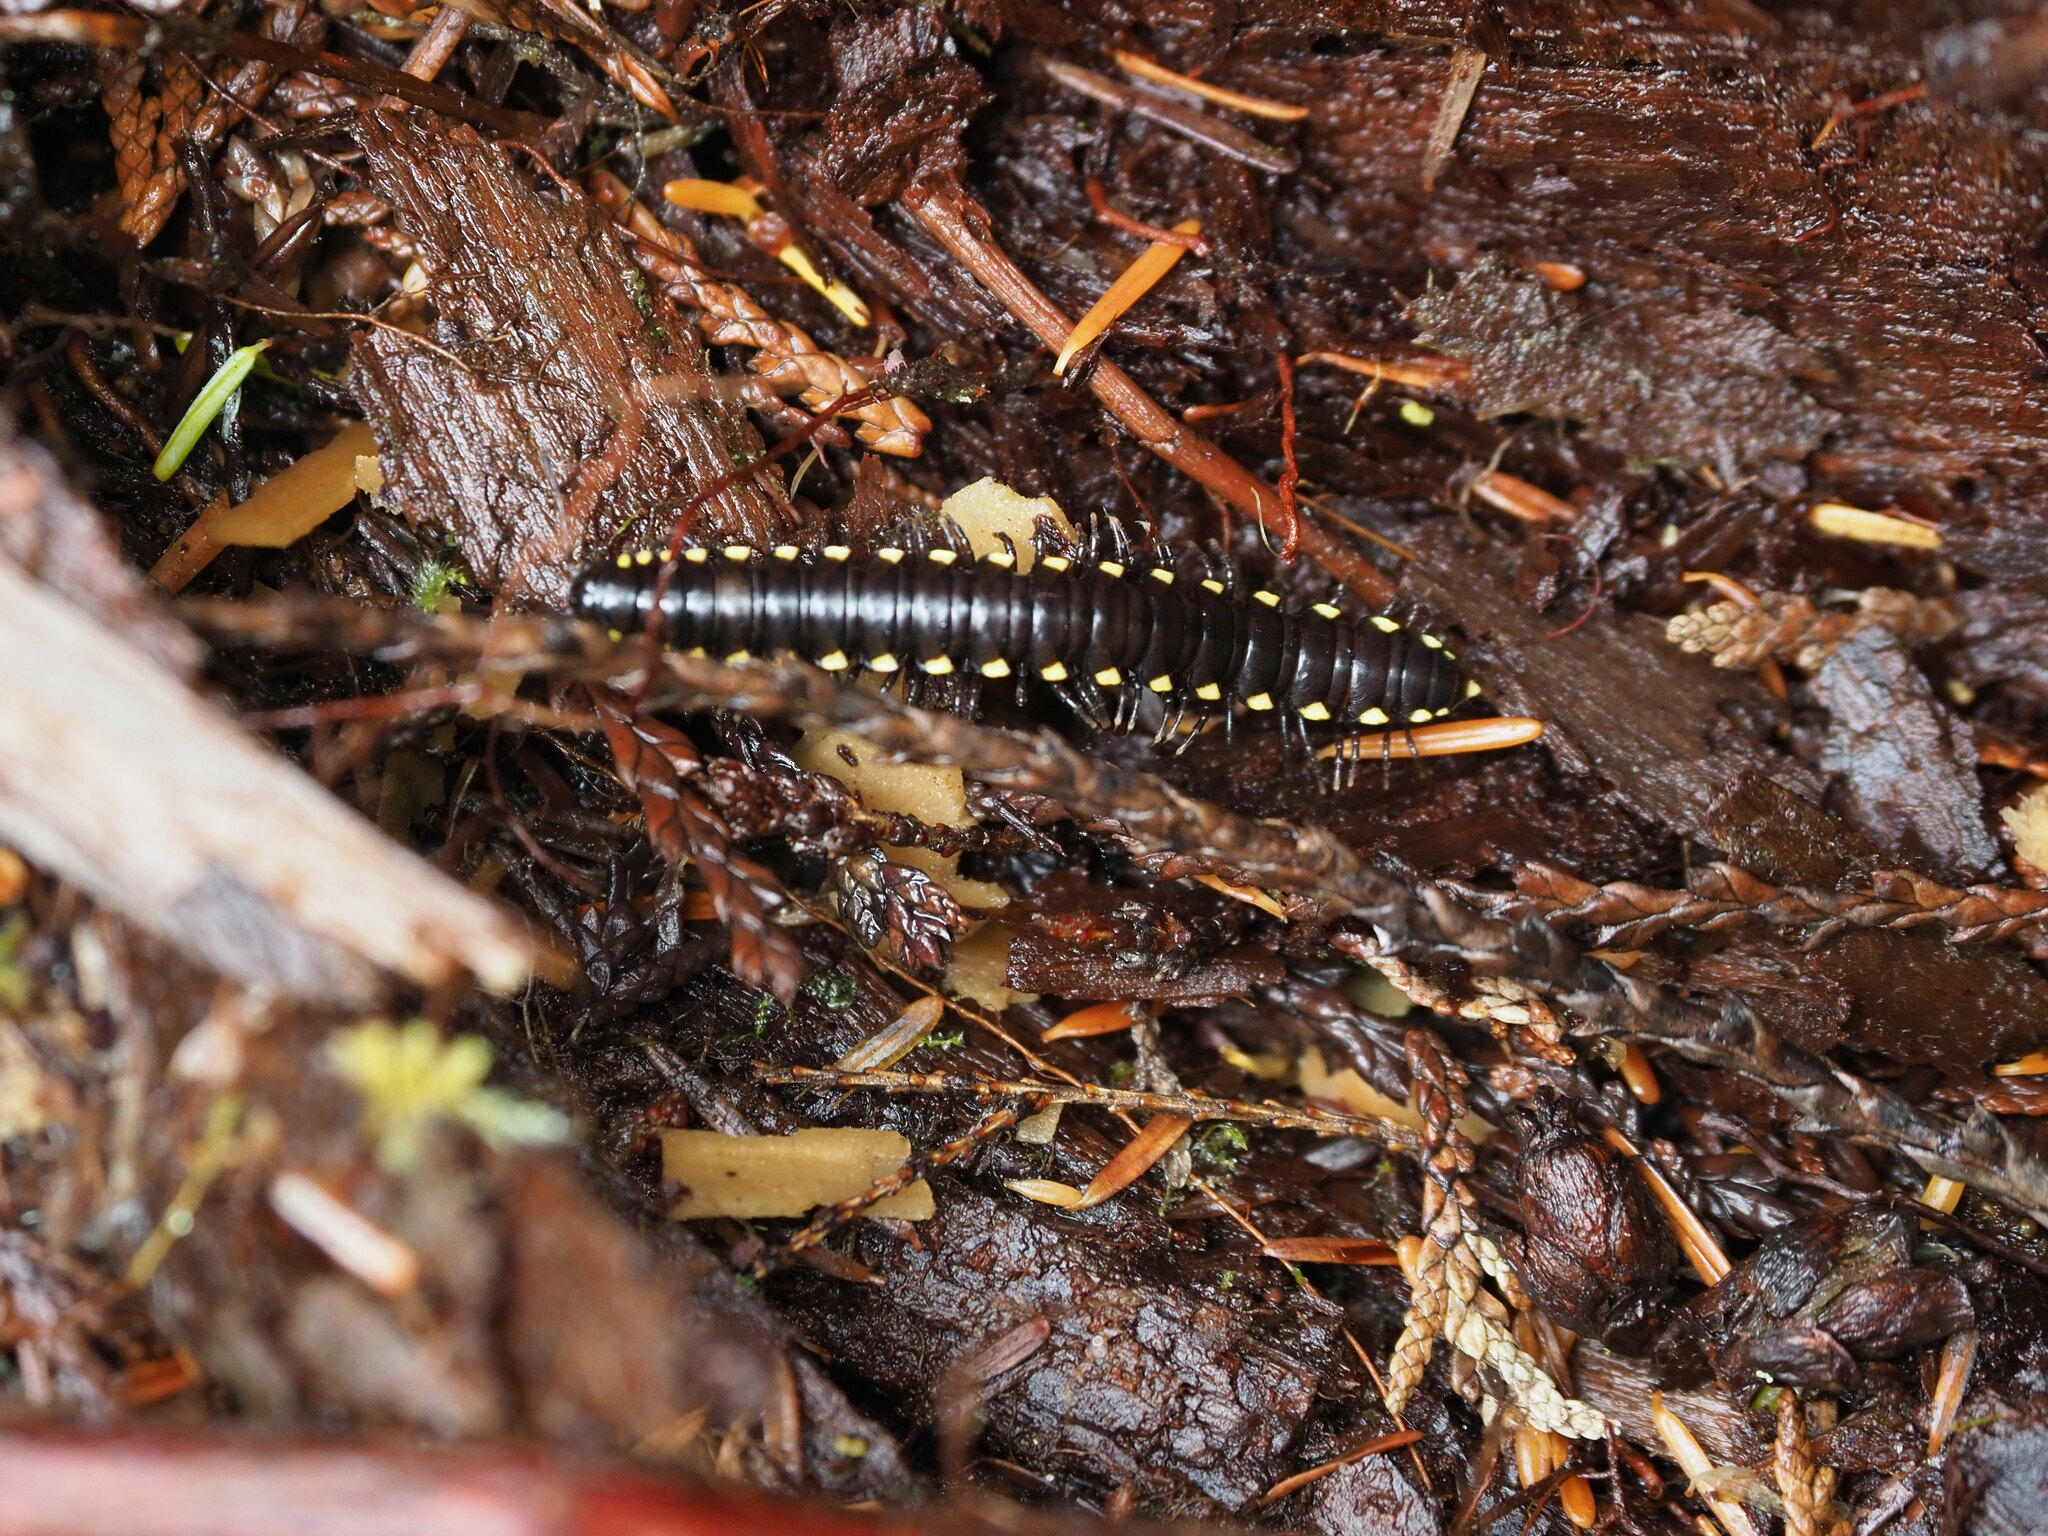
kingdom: Animalia
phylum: Arthropoda
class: Diplopoda
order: Polydesmida
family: Xystodesmidae
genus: Harpaphe
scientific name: Harpaphe haydeniana
